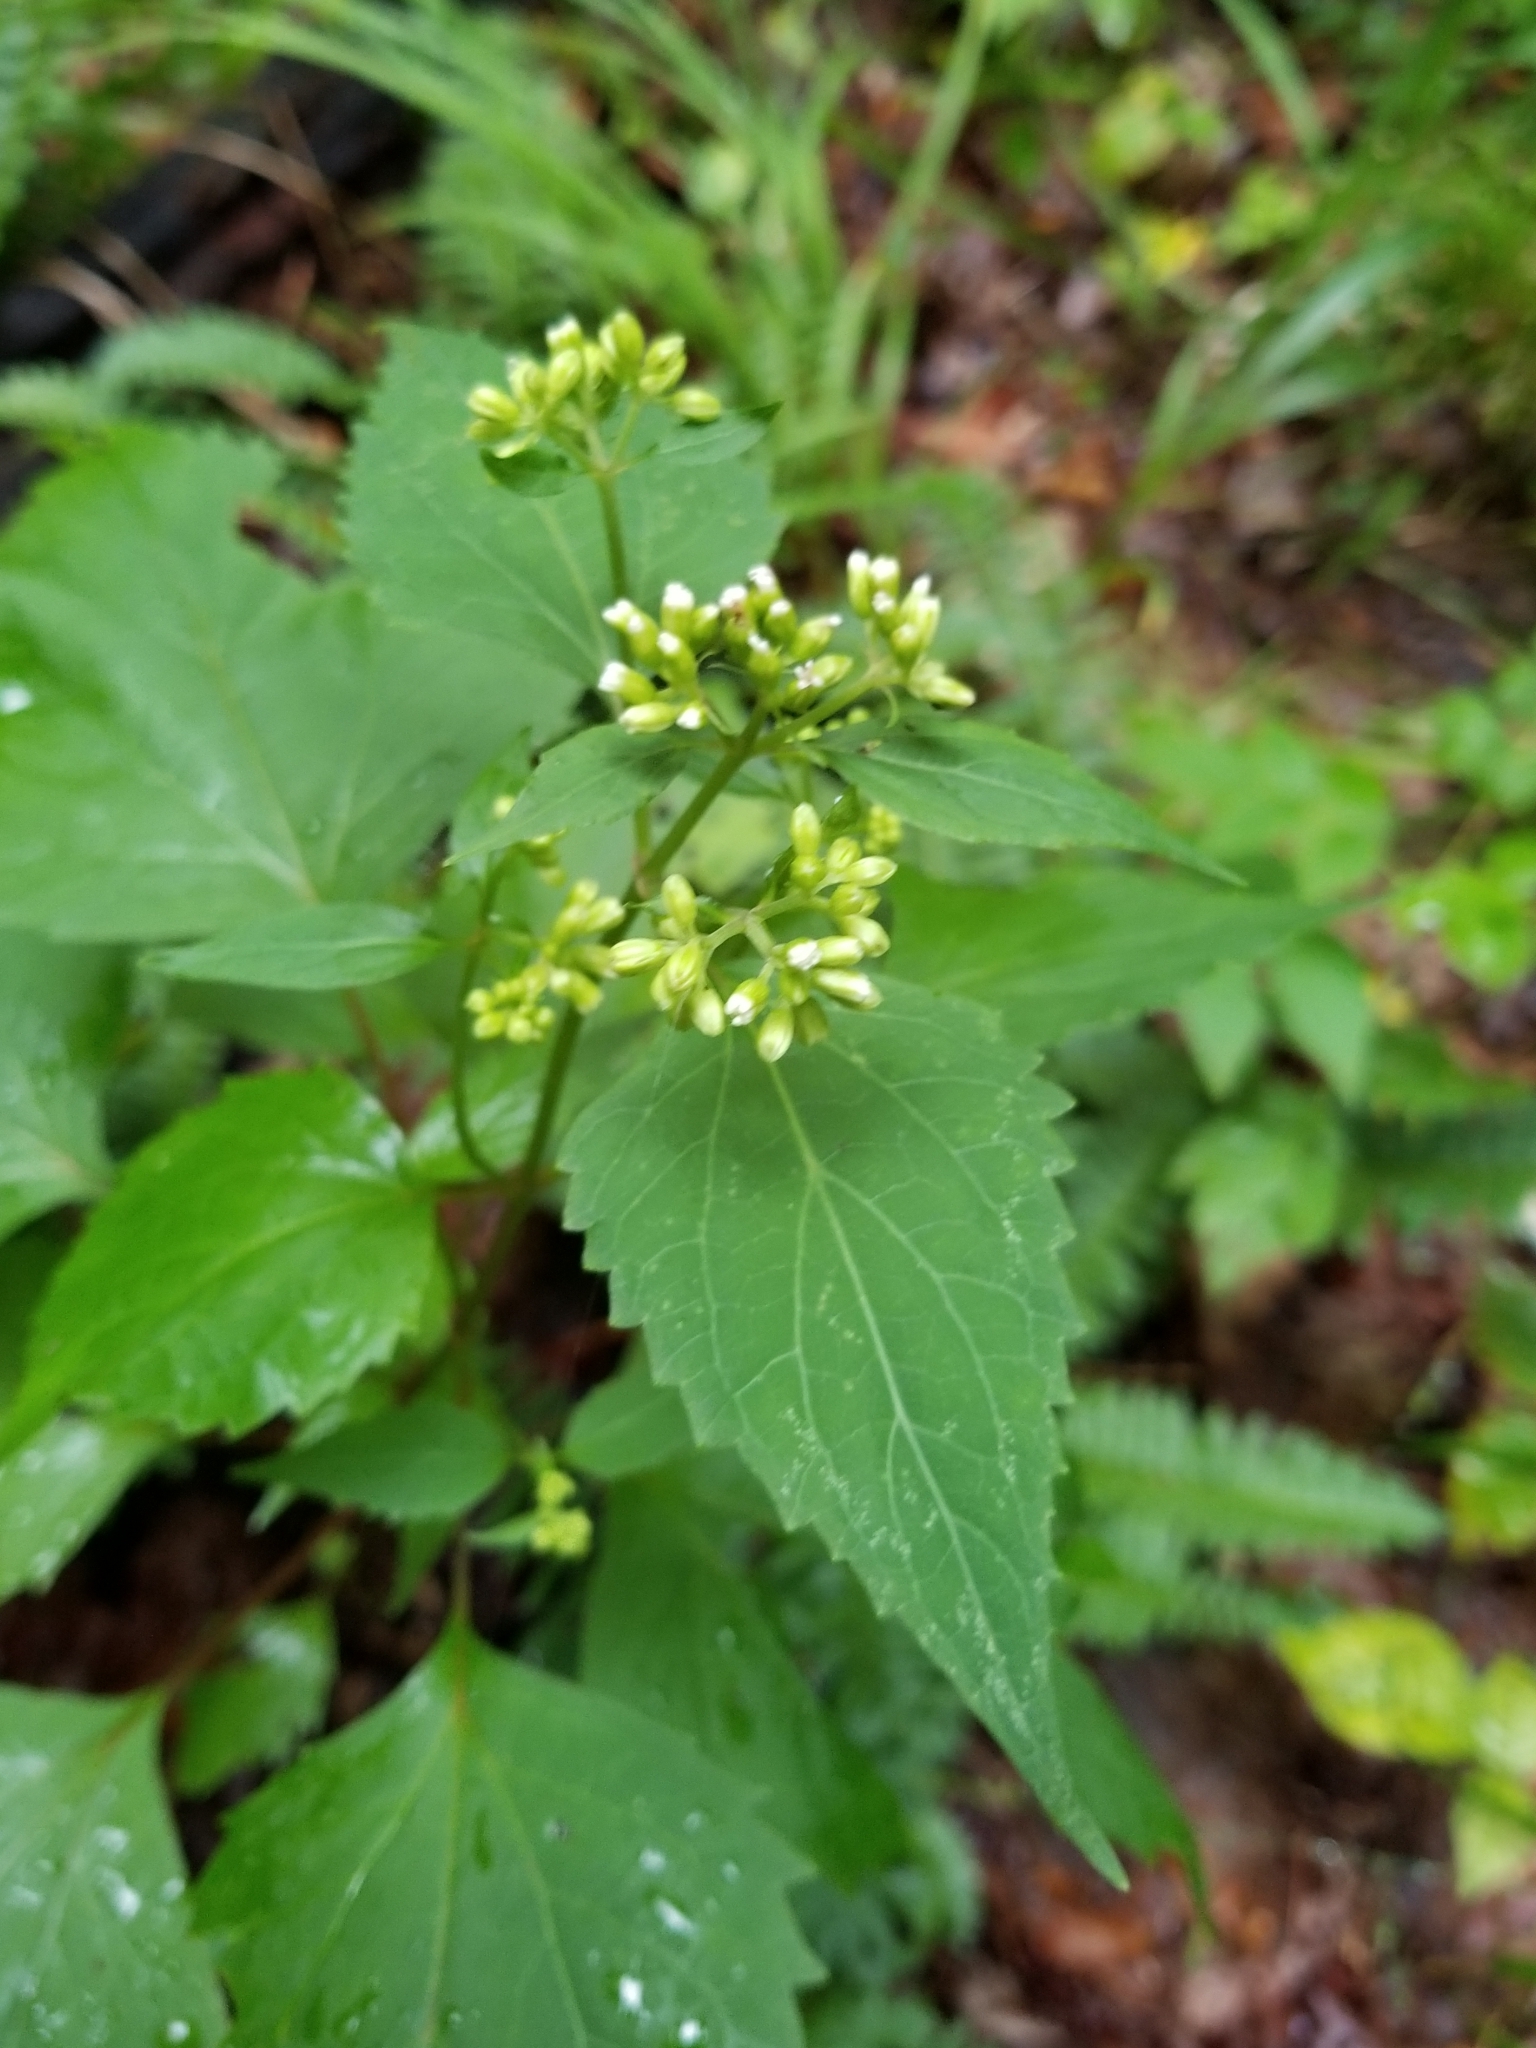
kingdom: Plantae
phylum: Tracheophyta
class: Magnoliopsida
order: Asterales
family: Asteraceae
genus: Ageratina
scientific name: Ageratina altissima
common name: White snakeroot
